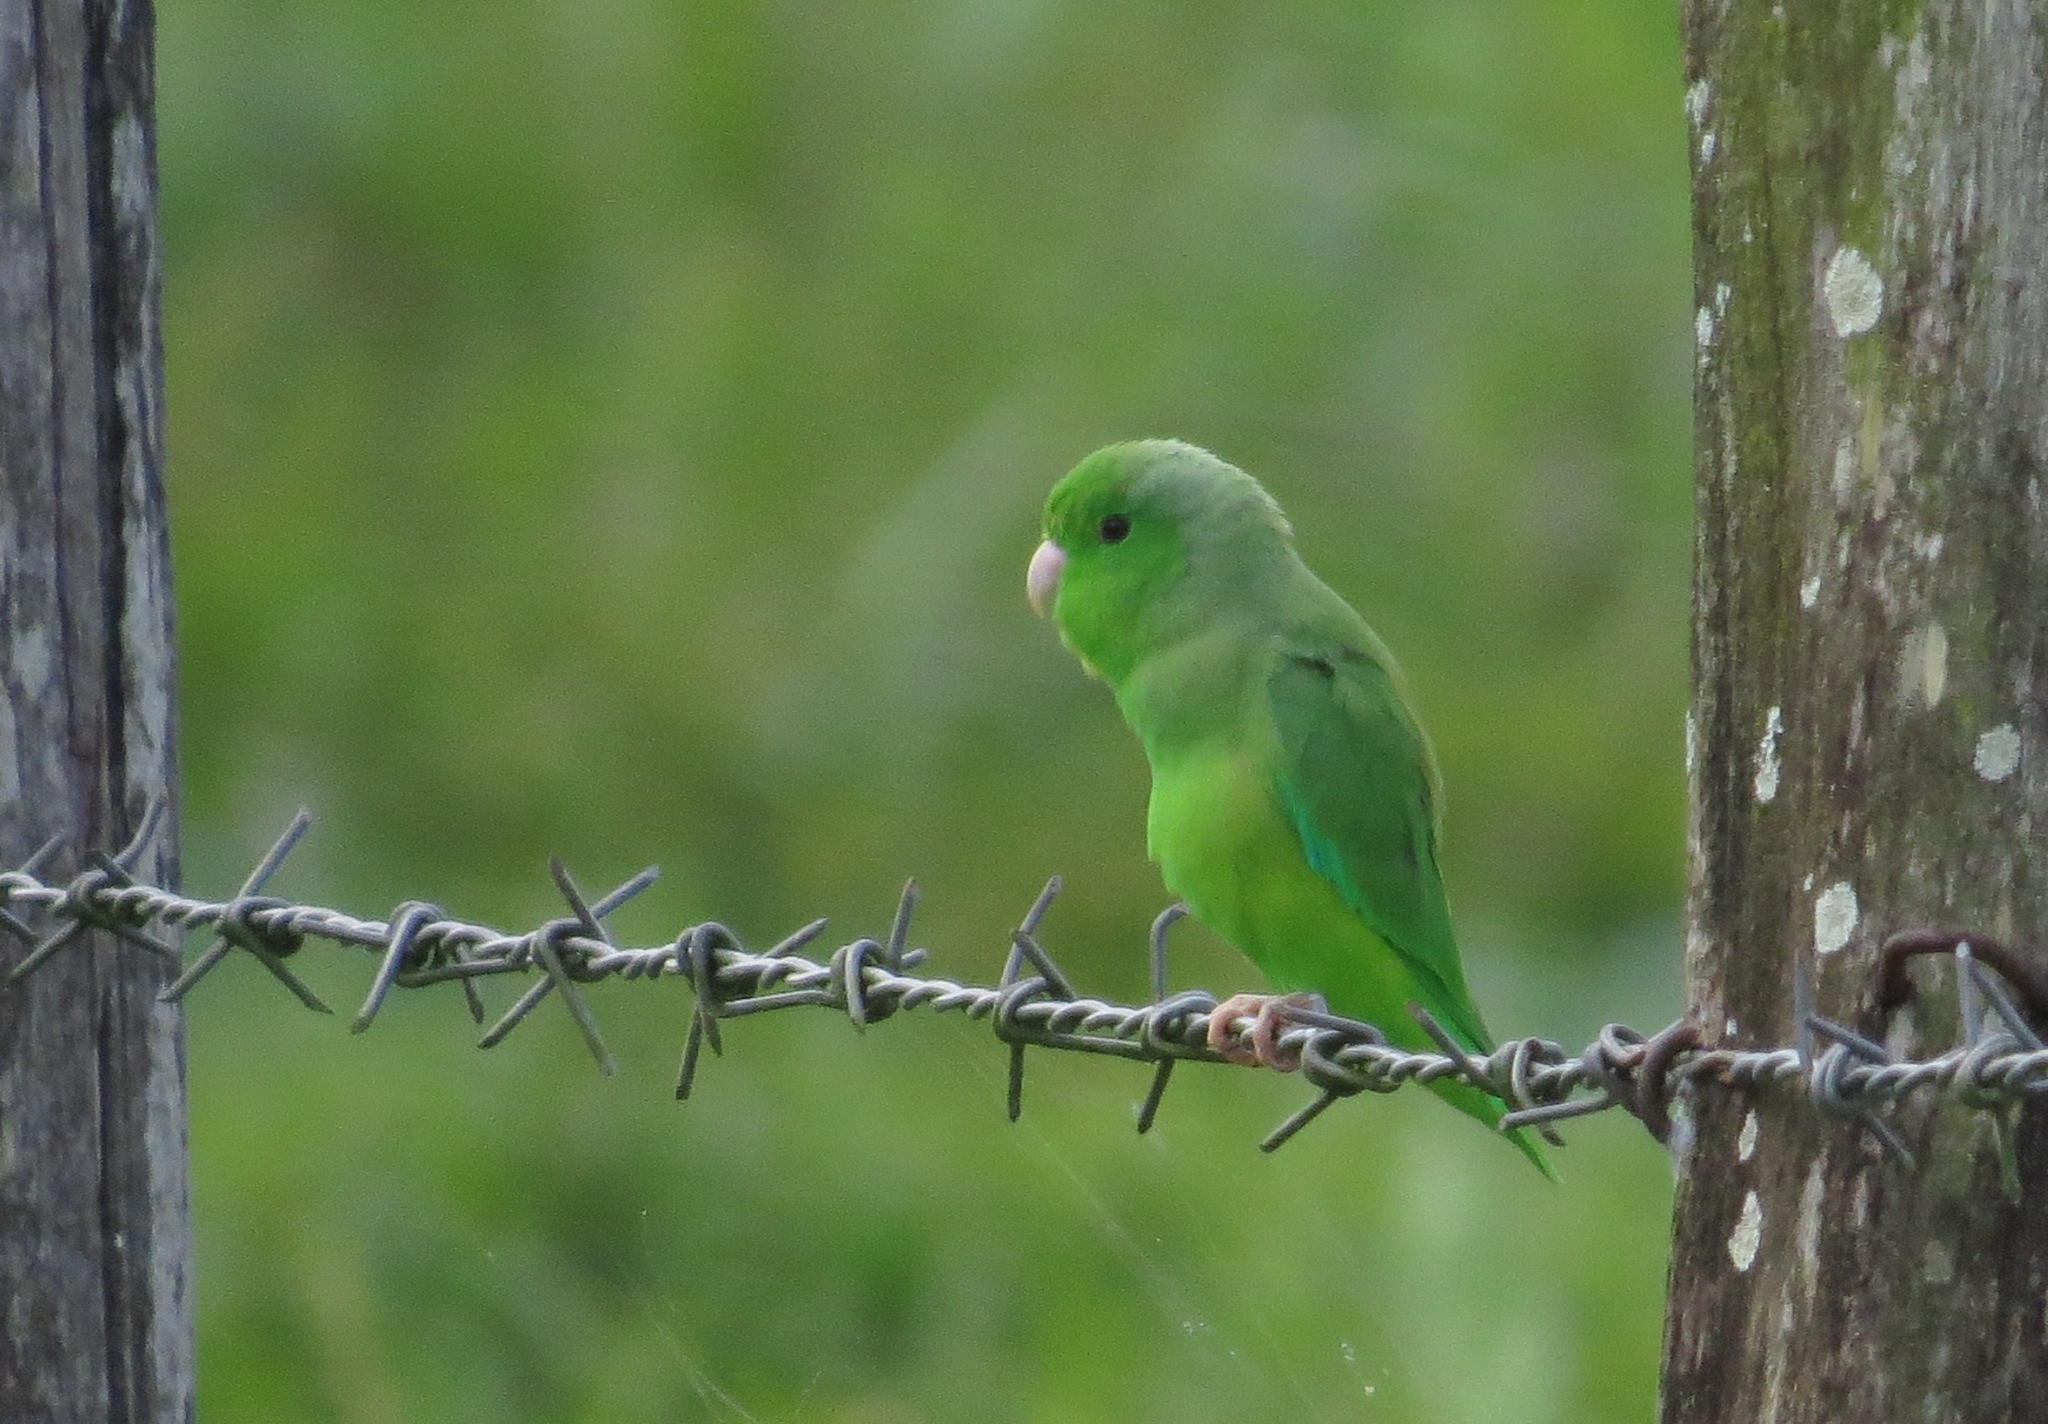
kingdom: Animalia
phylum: Chordata
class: Aves
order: Psittaciformes
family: Psittacidae
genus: Forpus
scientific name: Forpus passerinus
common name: Green-rumped parrotlet
